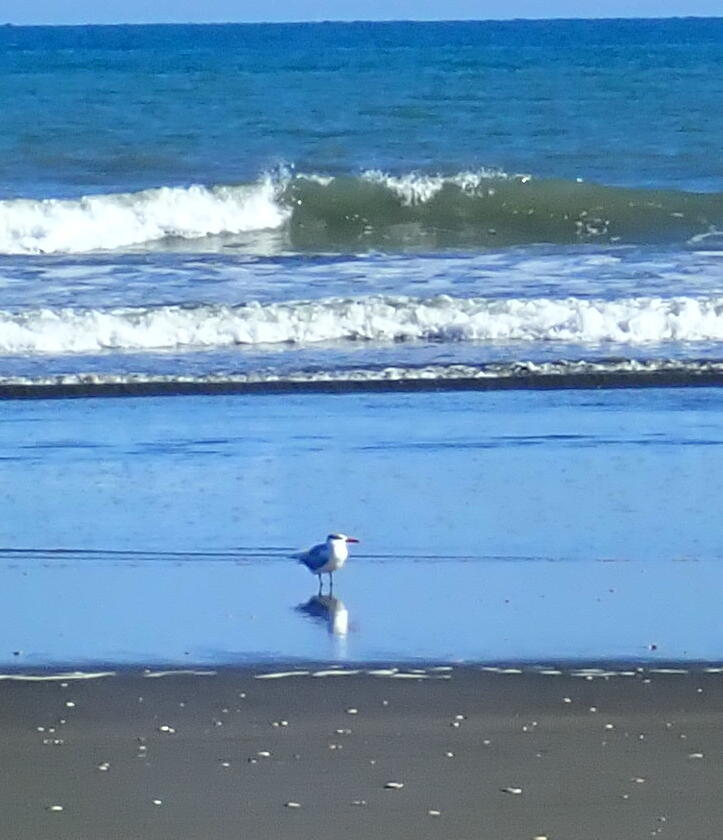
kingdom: Animalia
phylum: Chordata
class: Aves
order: Charadriiformes
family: Laridae
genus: Hydroprogne
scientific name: Hydroprogne caspia
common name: Caspian tern
